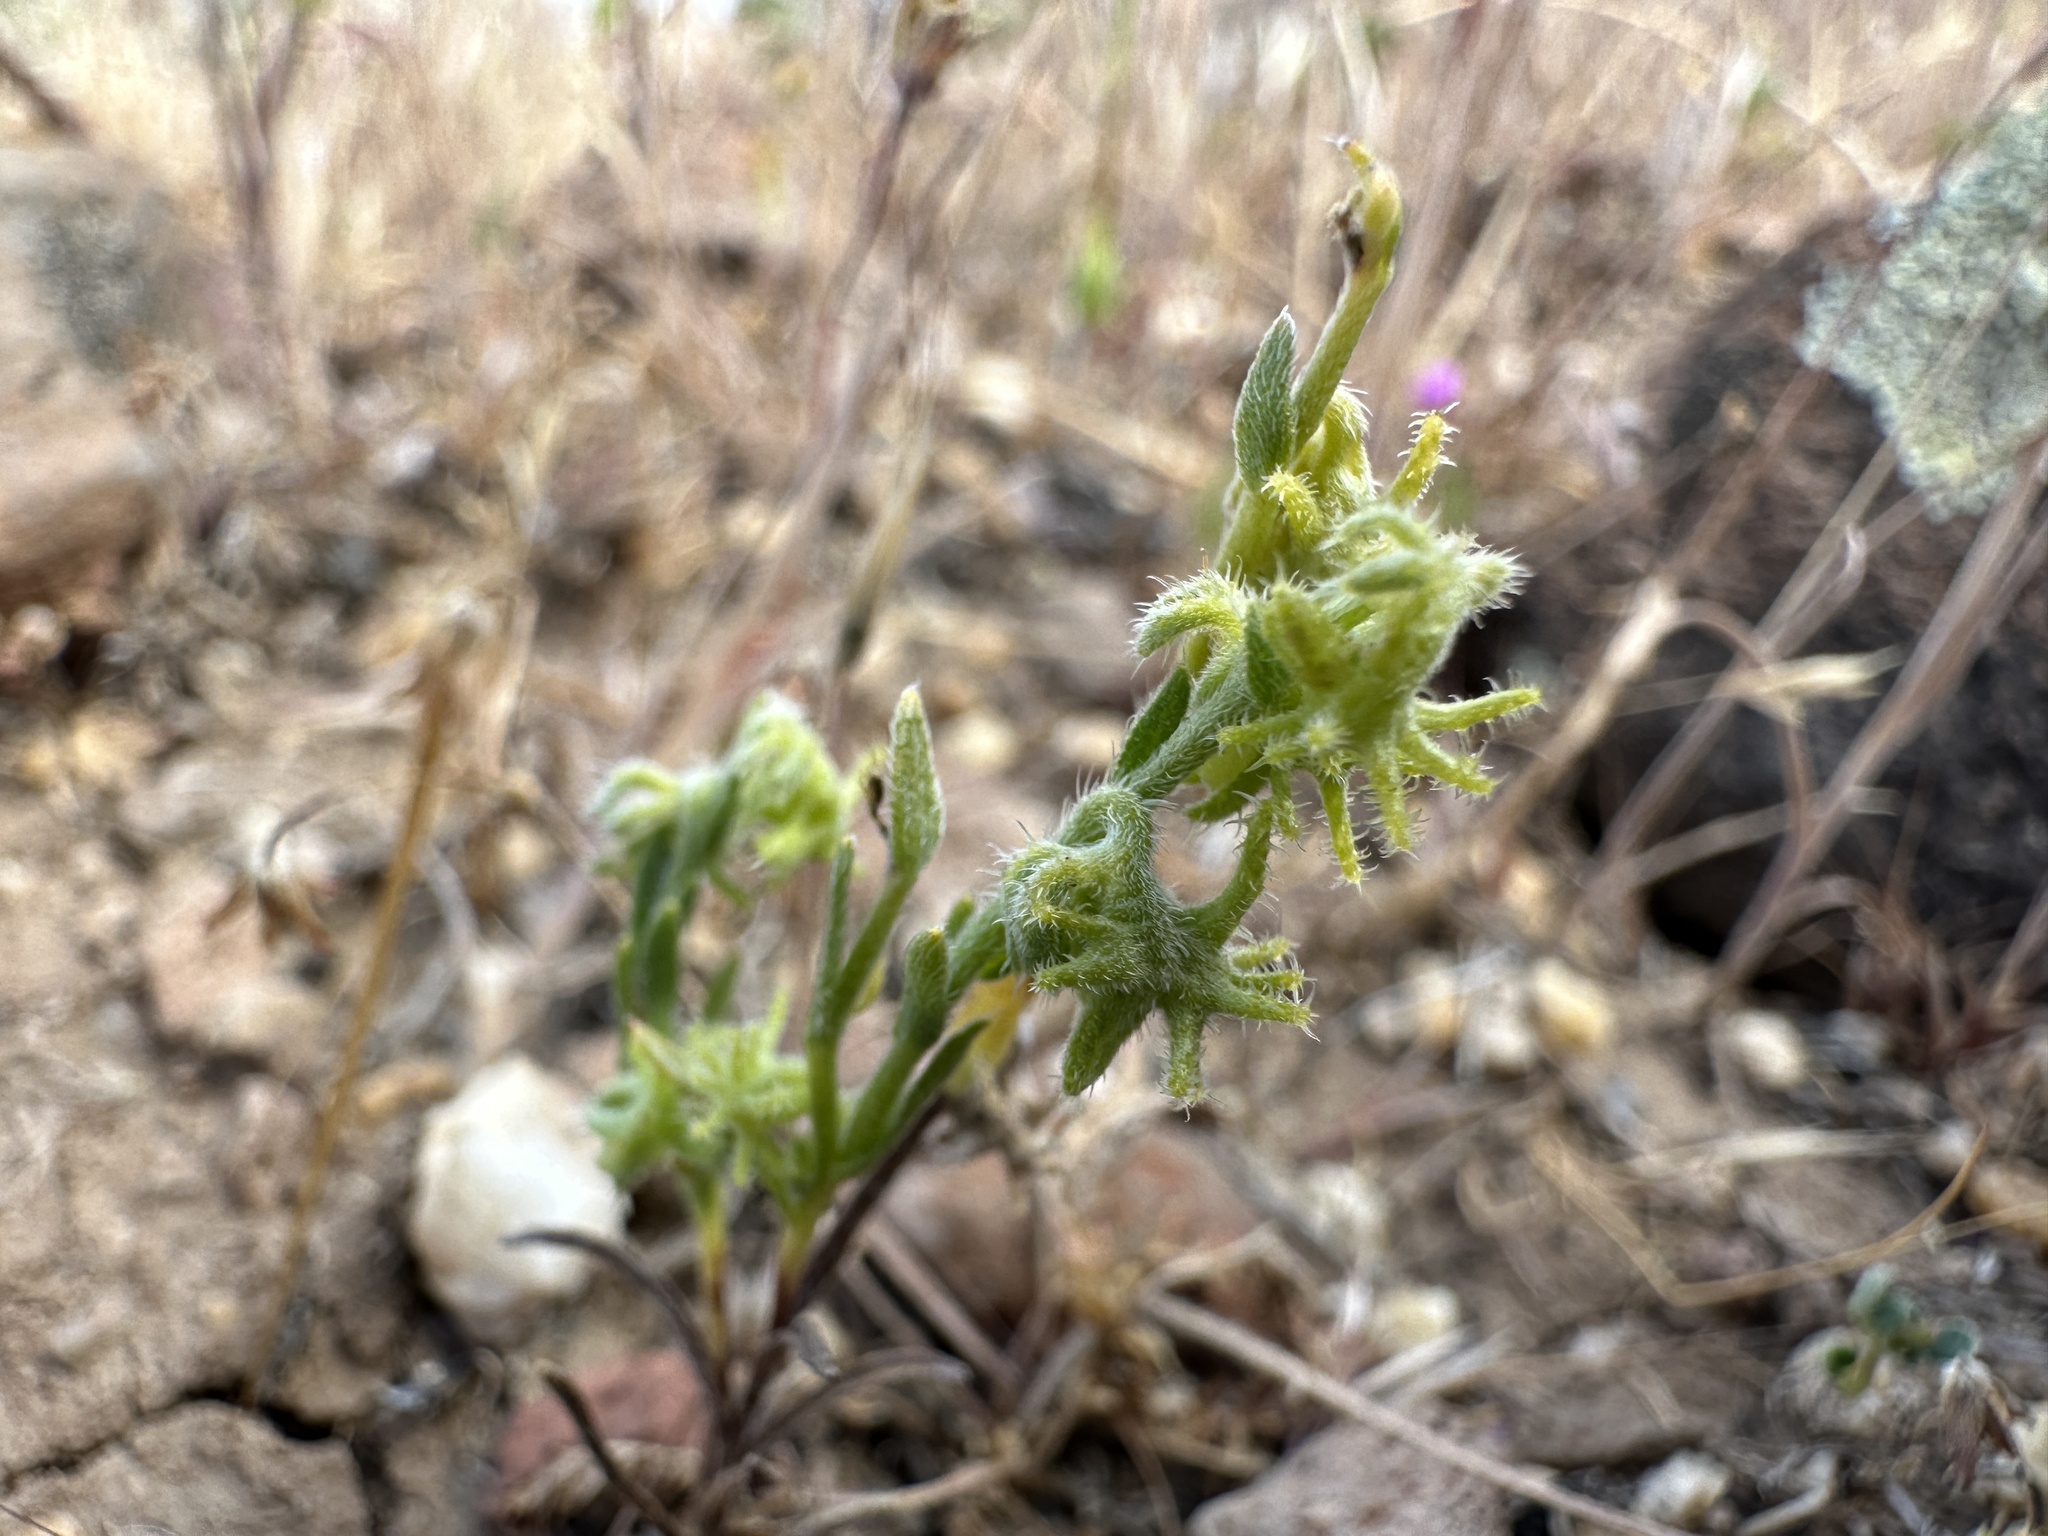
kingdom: Plantae
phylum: Tracheophyta
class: Magnoliopsida
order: Boraginales
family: Boraginaceae
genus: Harpagonella
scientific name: Harpagonella palmeri
